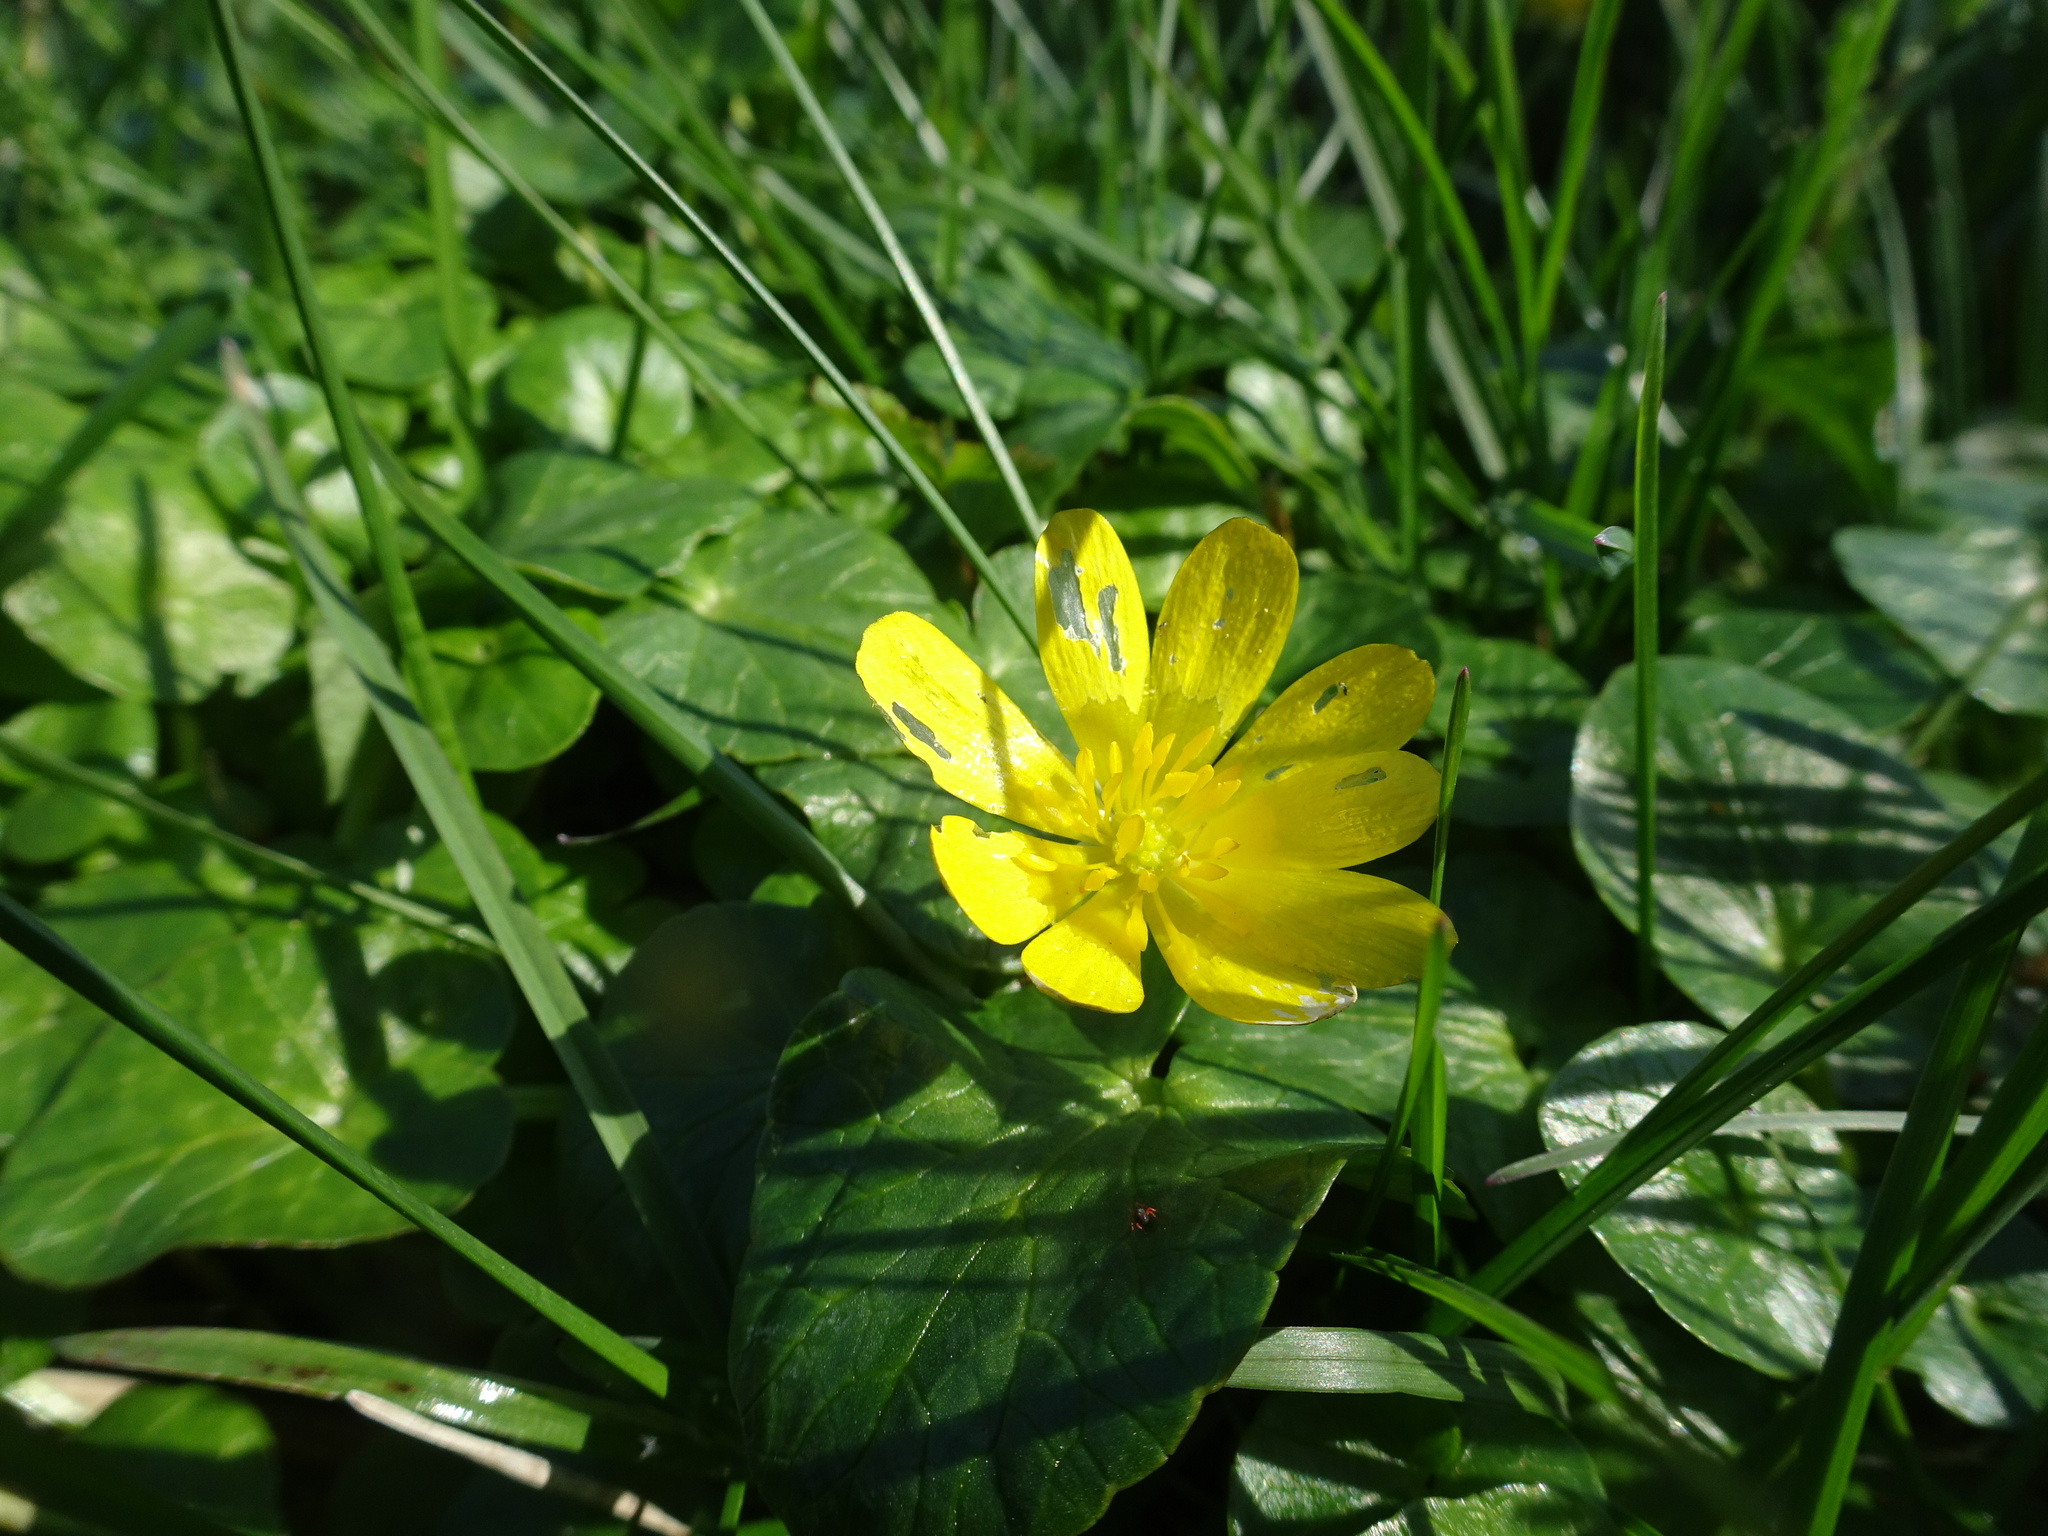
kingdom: Plantae
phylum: Tracheophyta
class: Magnoliopsida
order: Ranunculales
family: Ranunculaceae
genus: Ficaria
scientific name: Ficaria verna
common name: Lesser celandine
